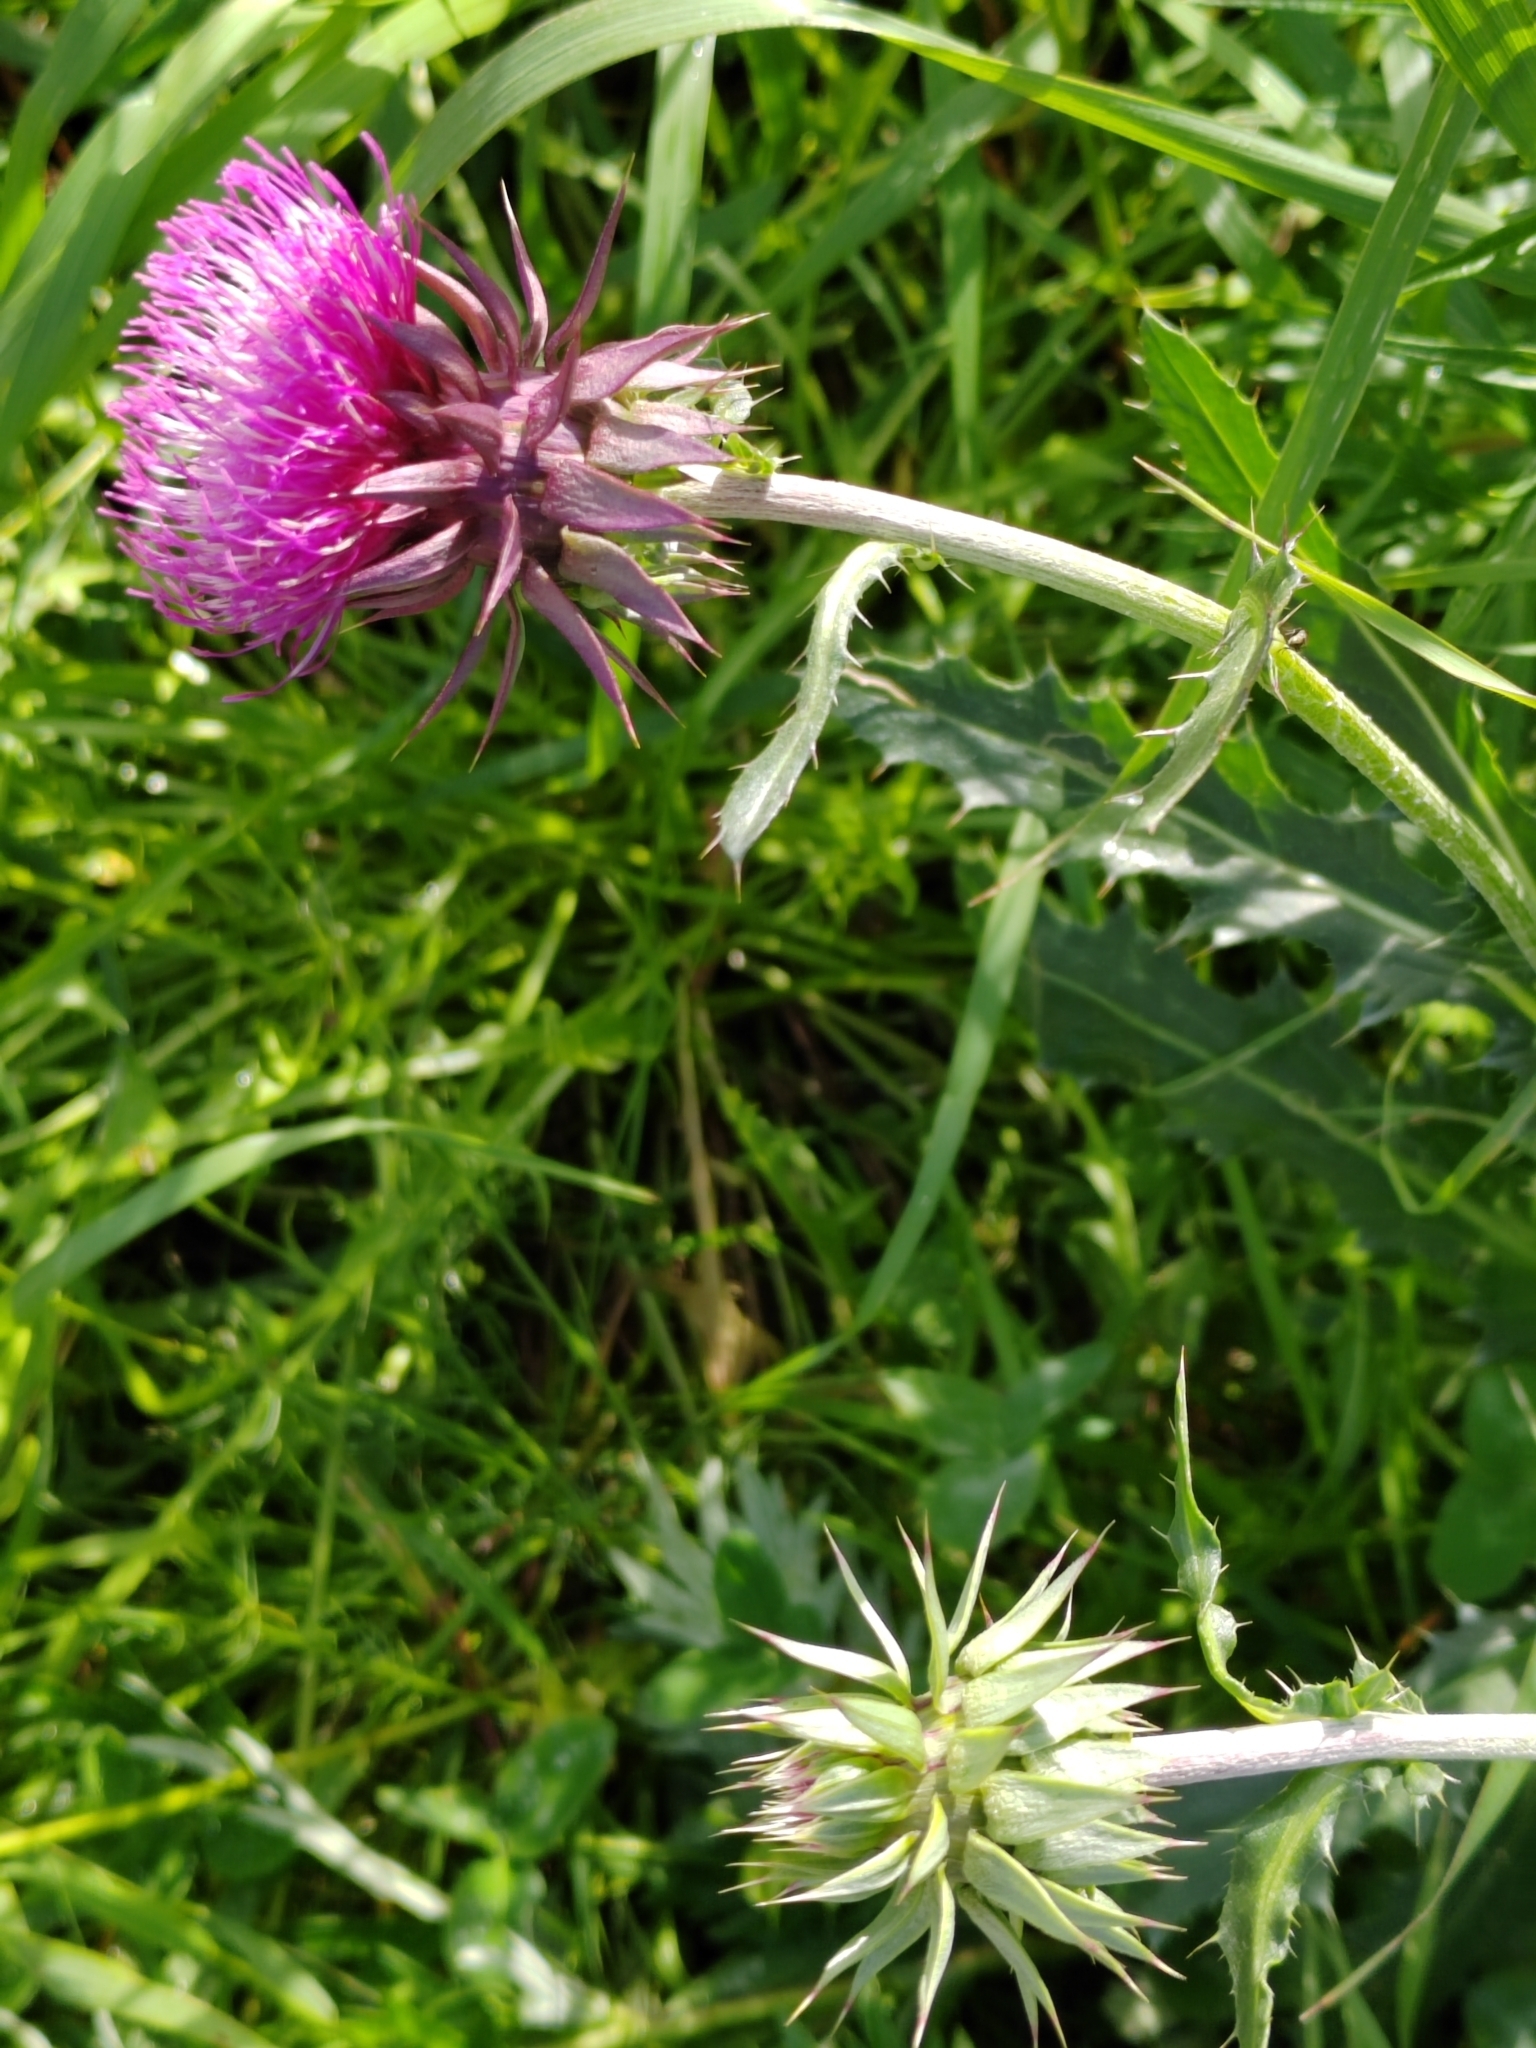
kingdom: Plantae
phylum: Tracheophyta
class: Magnoliopsida
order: Asterales
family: Asteraceae
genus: Carduus
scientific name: Carduus nutans
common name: Musk thistle
